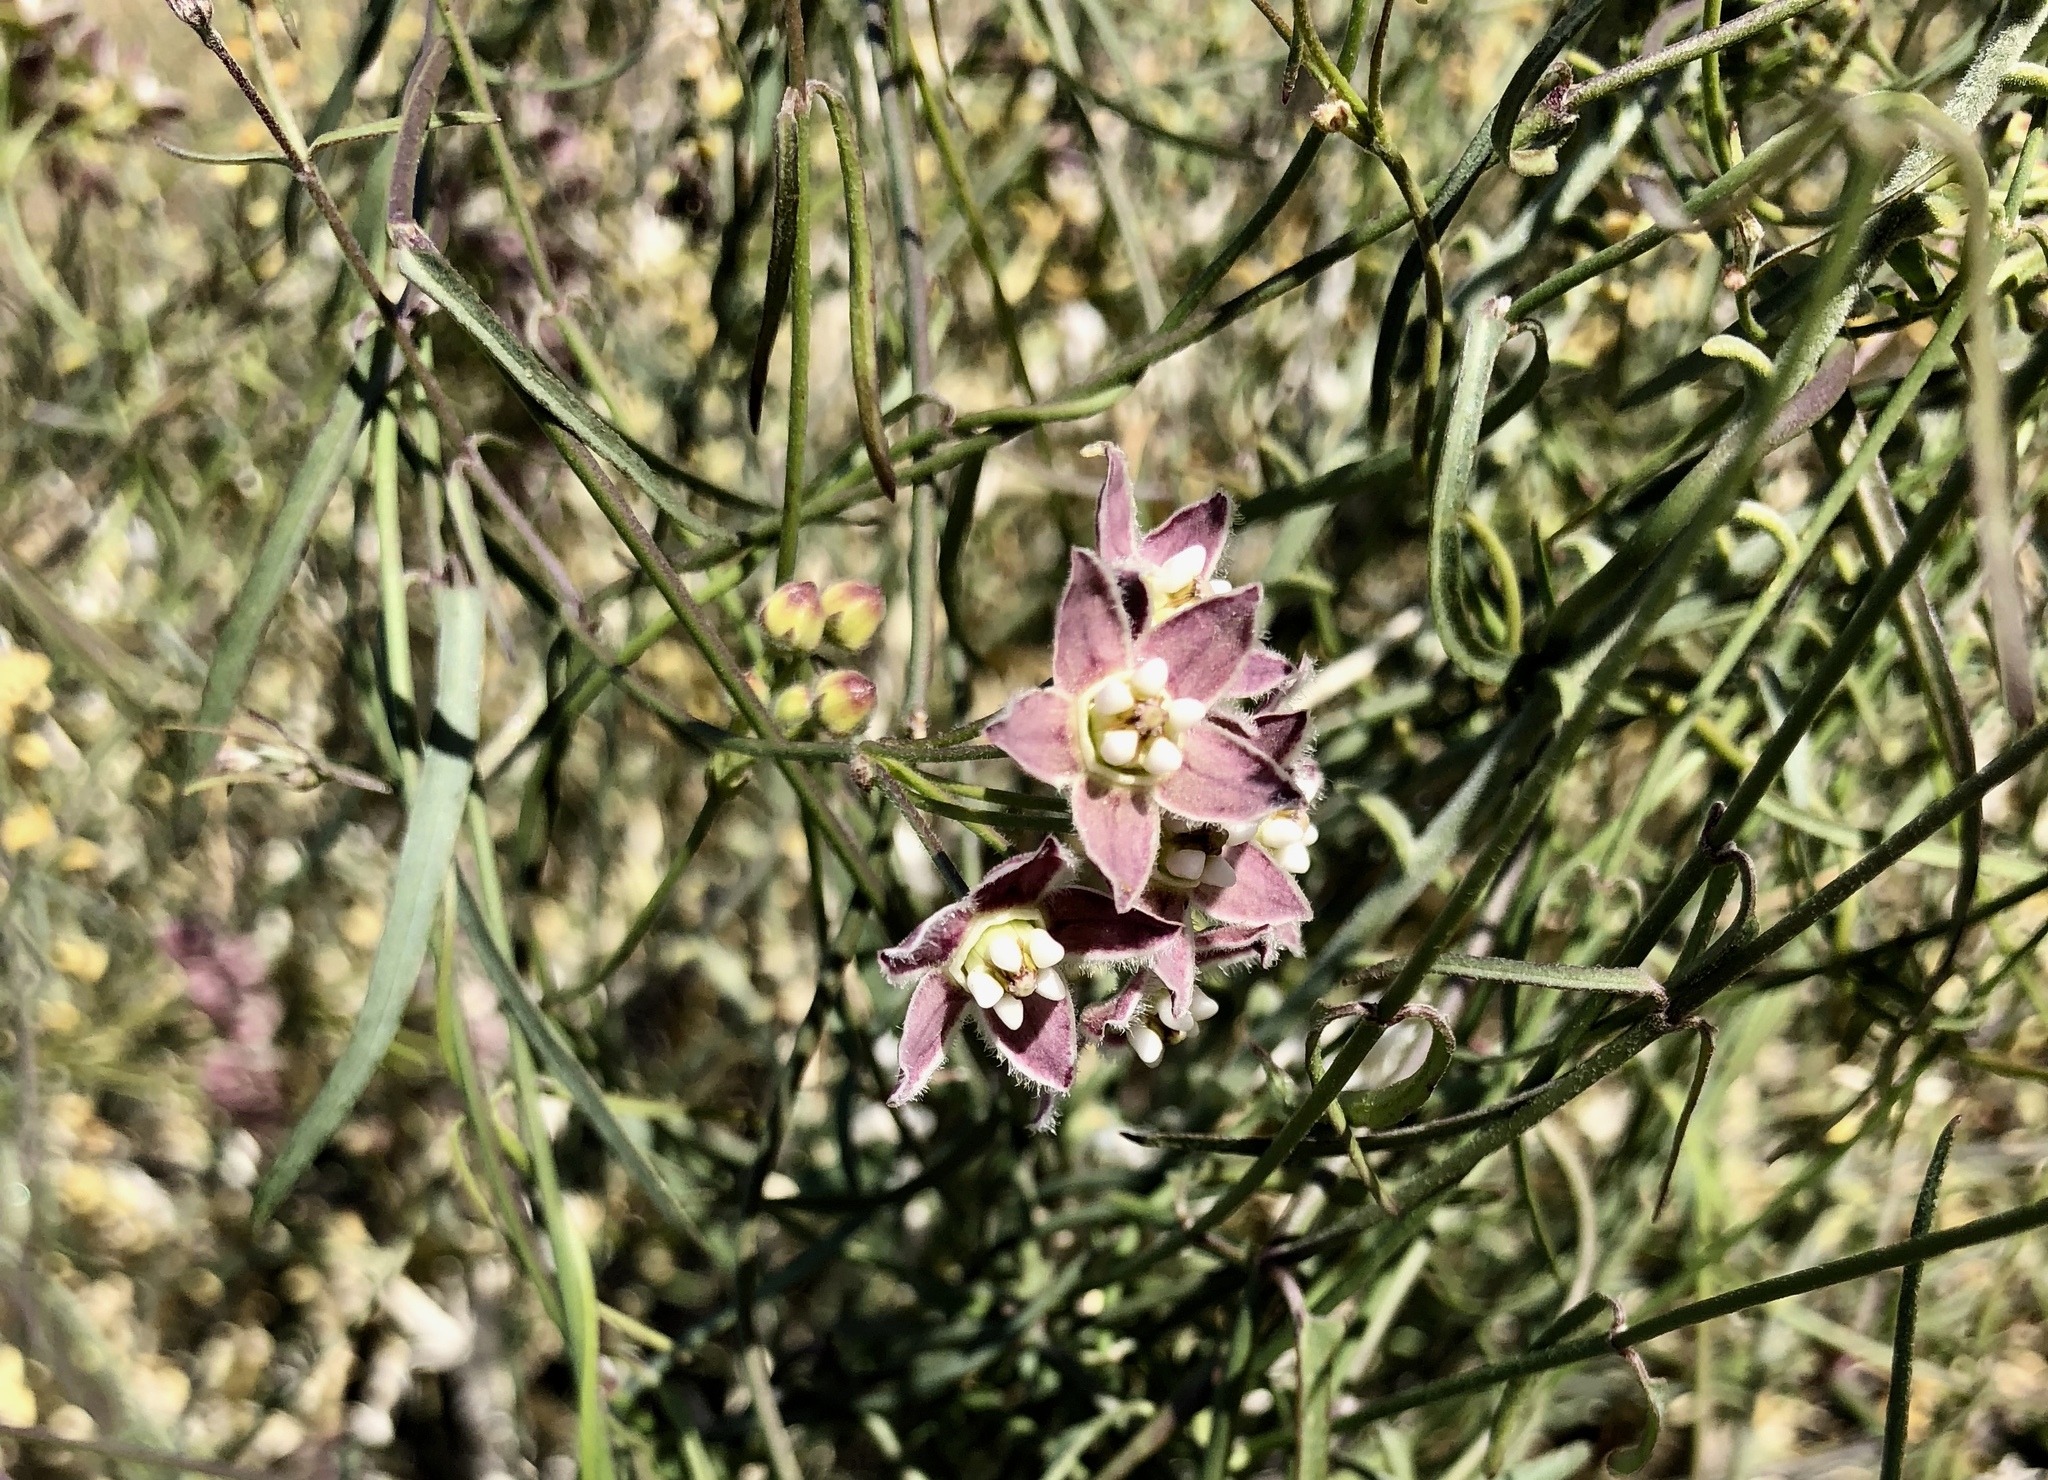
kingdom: Plantae
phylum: Tracheophyta
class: Magnoliopsida
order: Gentianales
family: Apocynaceae
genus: Funastrum
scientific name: Funastrum heterophyllum
